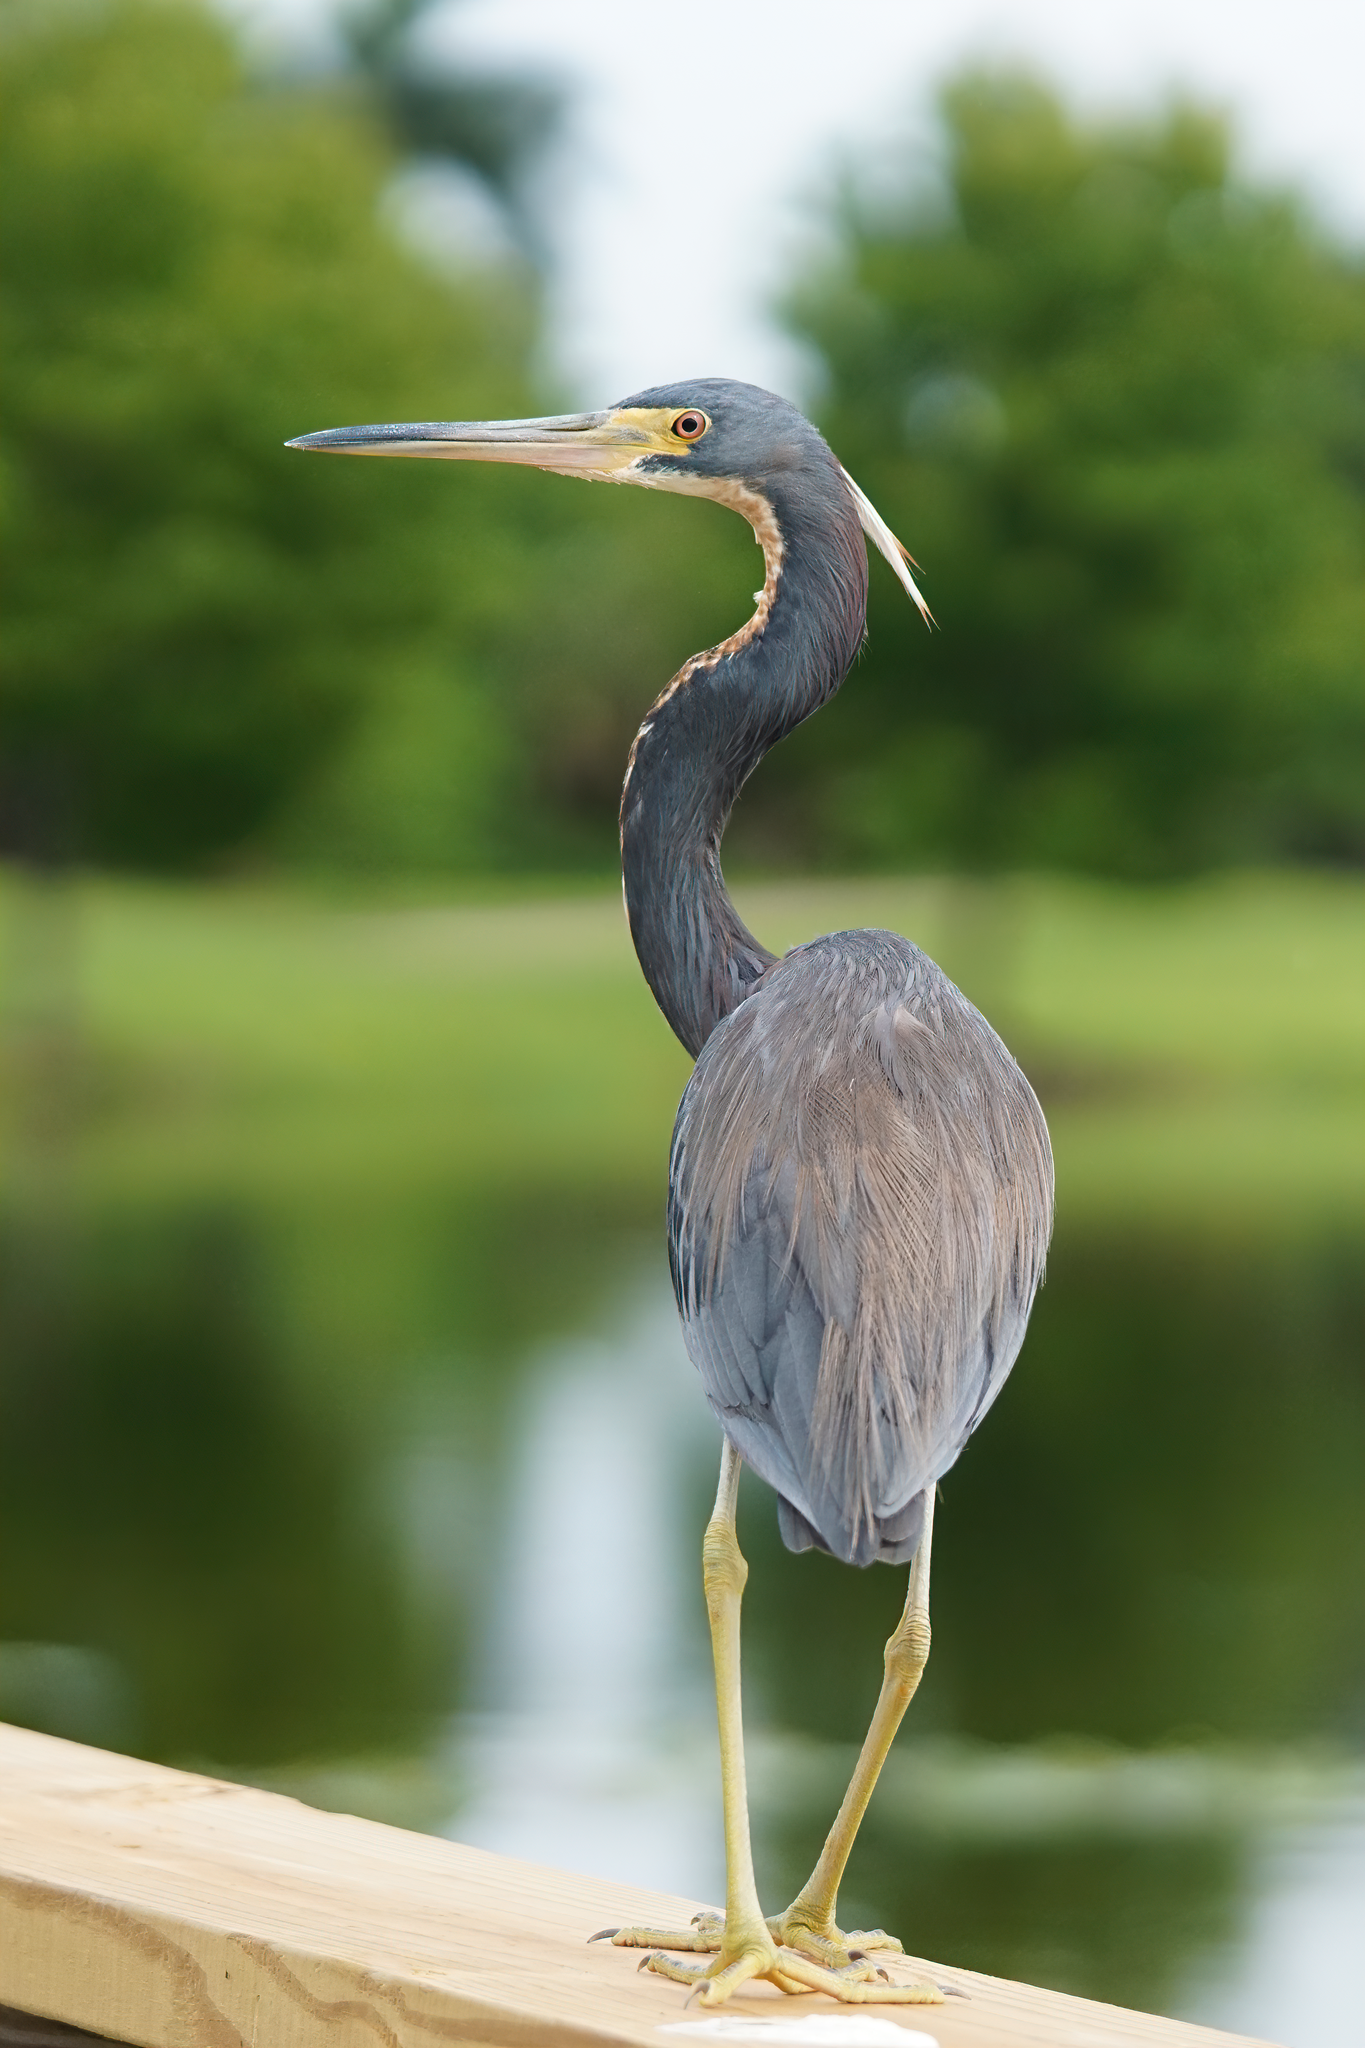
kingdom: Animalia
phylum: Chordata
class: Aves
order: Pelecaniformes
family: Ardeidae
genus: Egretta
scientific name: Egretta tricolor
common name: Tricolored heron
